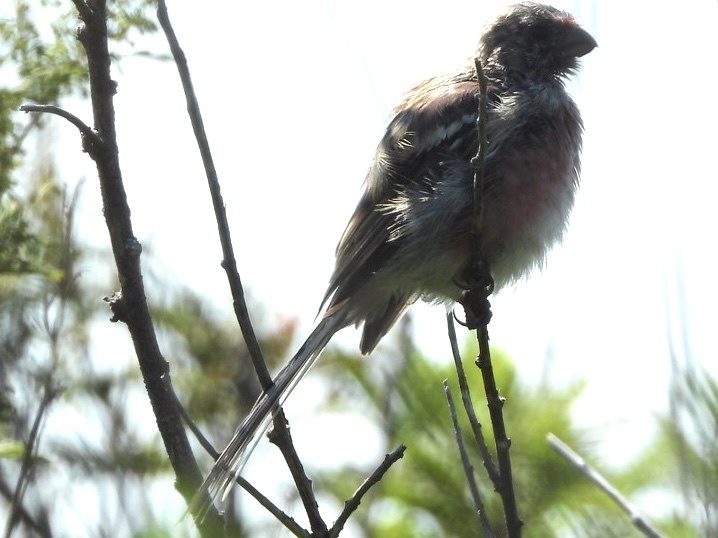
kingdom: Animalia
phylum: Chordata
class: Aves
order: Passeriformes
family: Fringillidae
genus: Carpodacus
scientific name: Carpodacus sibiricus
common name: Long-tailed rosefinch
